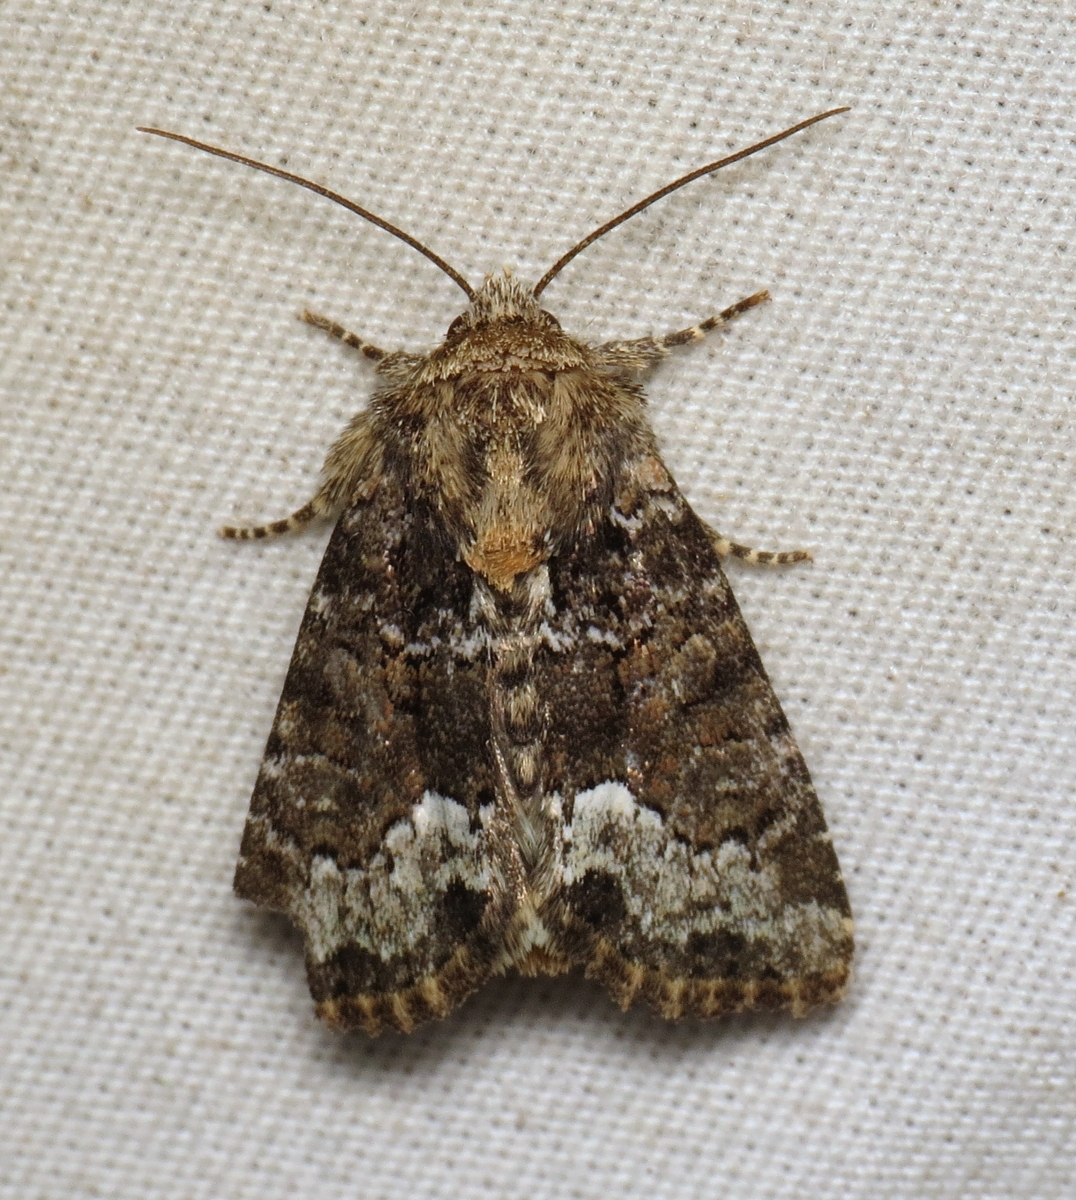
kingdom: Animalia
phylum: Arthropoda
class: Insecta
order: Lepidoptera
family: Noctuidae
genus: Oligia
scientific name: Oligia strigilis
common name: Marbled minor
